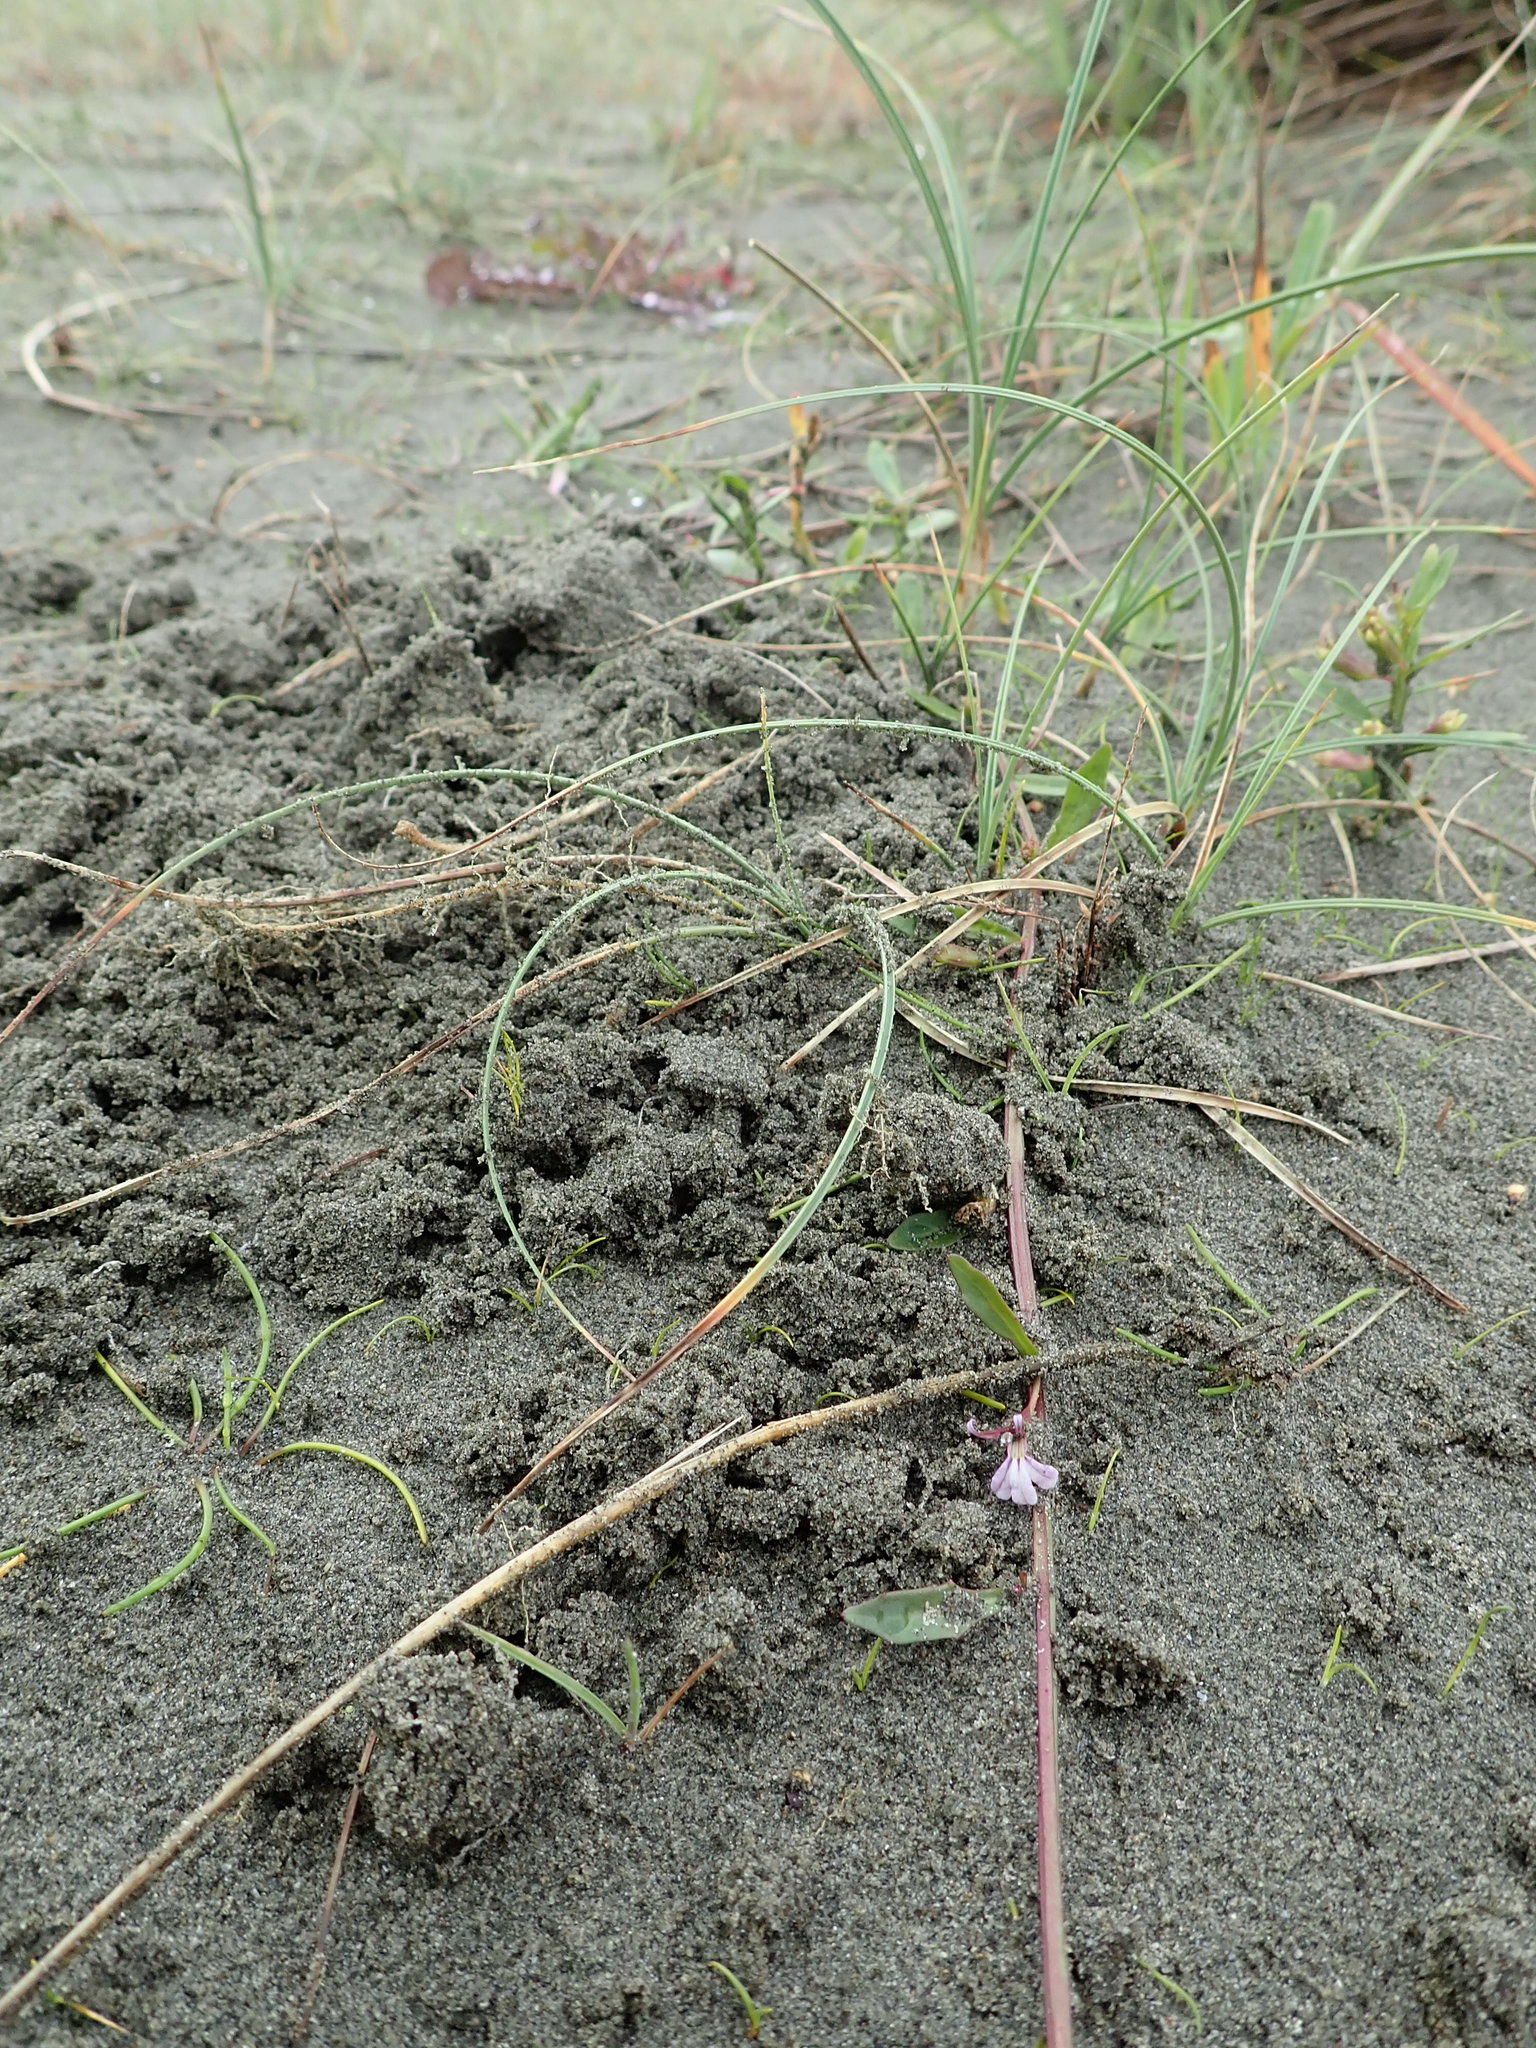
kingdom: Plantae
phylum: Tracheophyta
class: Magnoliopsida
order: Asterales
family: Campanulaceae
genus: Lobelia
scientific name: Lobelia anceps
